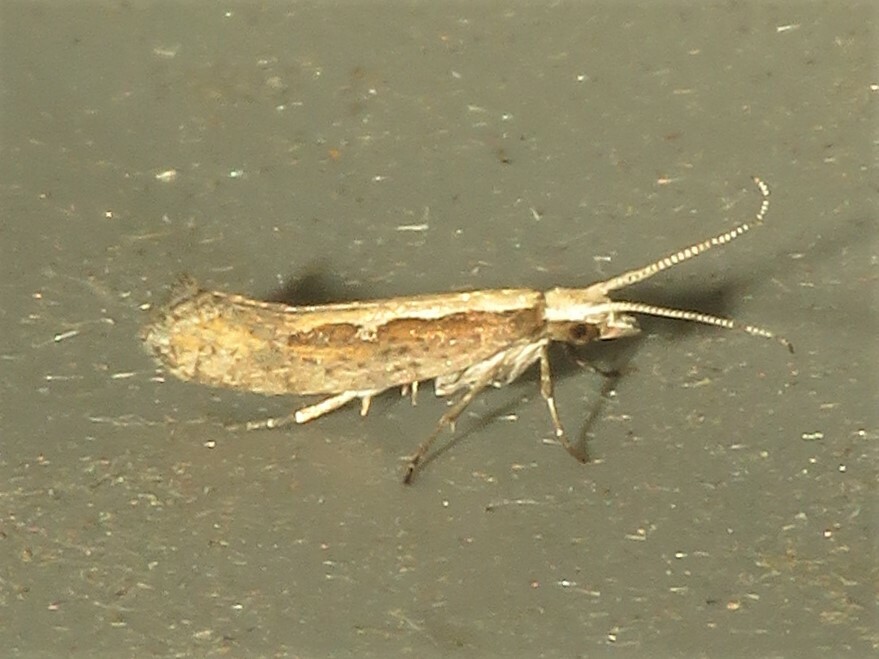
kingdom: Animalia
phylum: Arthropoda
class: Insecta
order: Lepidoptera
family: Plutellidae
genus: Plutella
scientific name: Plutella xylostella
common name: Diamond-back moth
